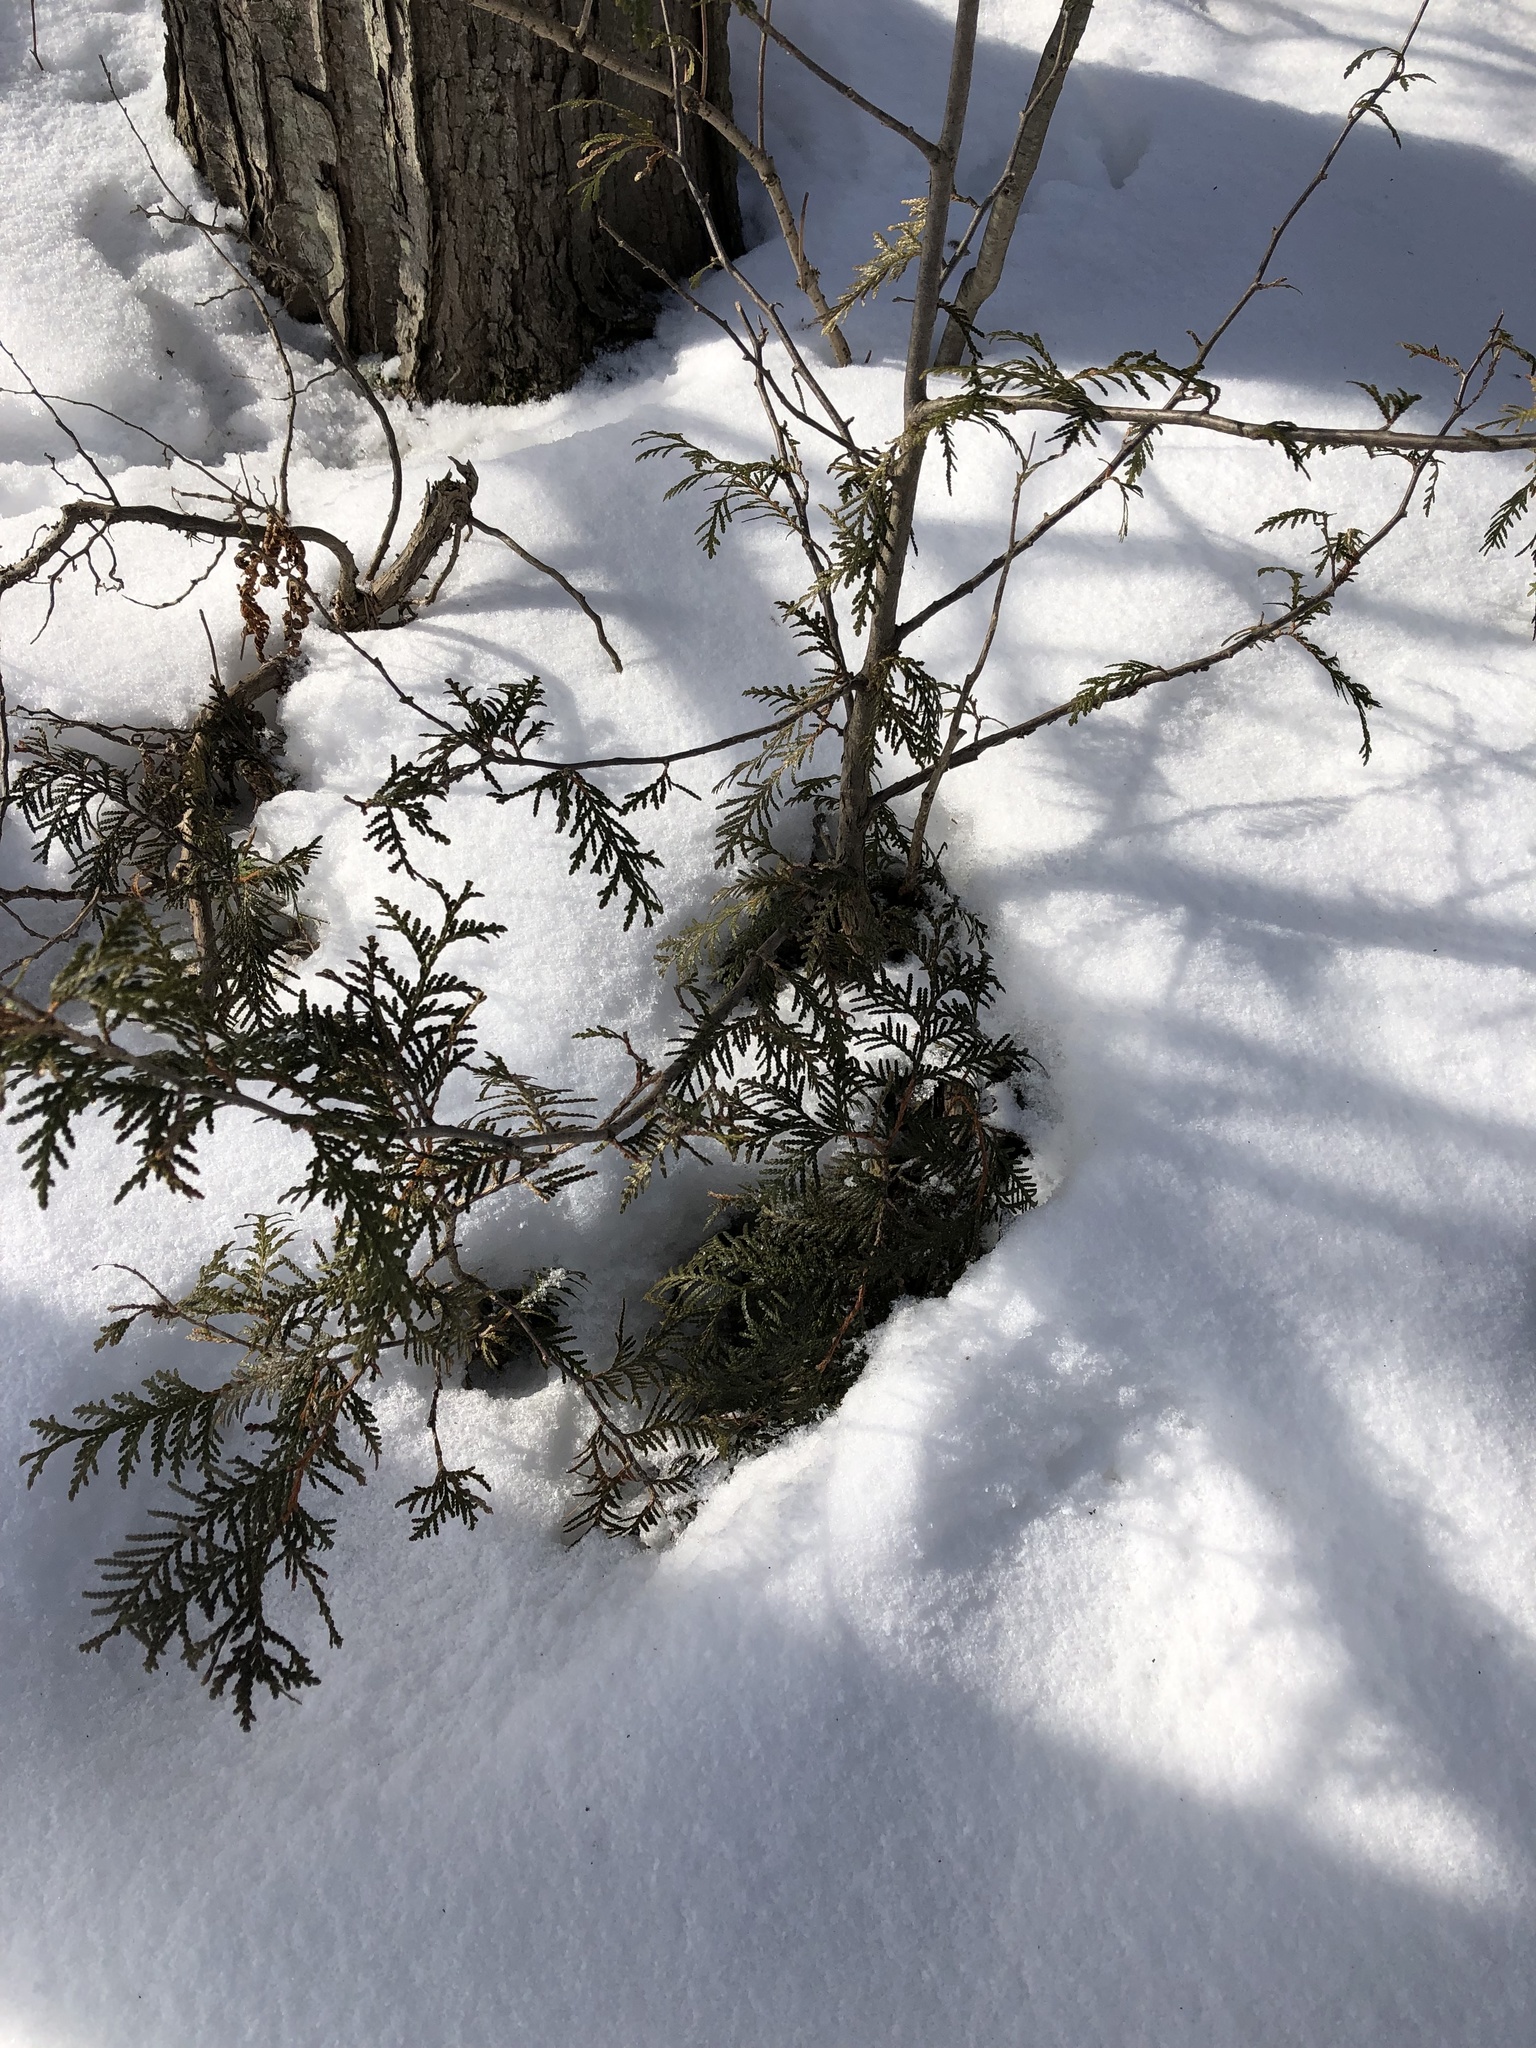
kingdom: Plantae
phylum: Tracheophyta
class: Pinopsida
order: Pinales
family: Cupressaceae
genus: Thuja
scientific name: Thuja occidentalis
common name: Northern white-cedar
